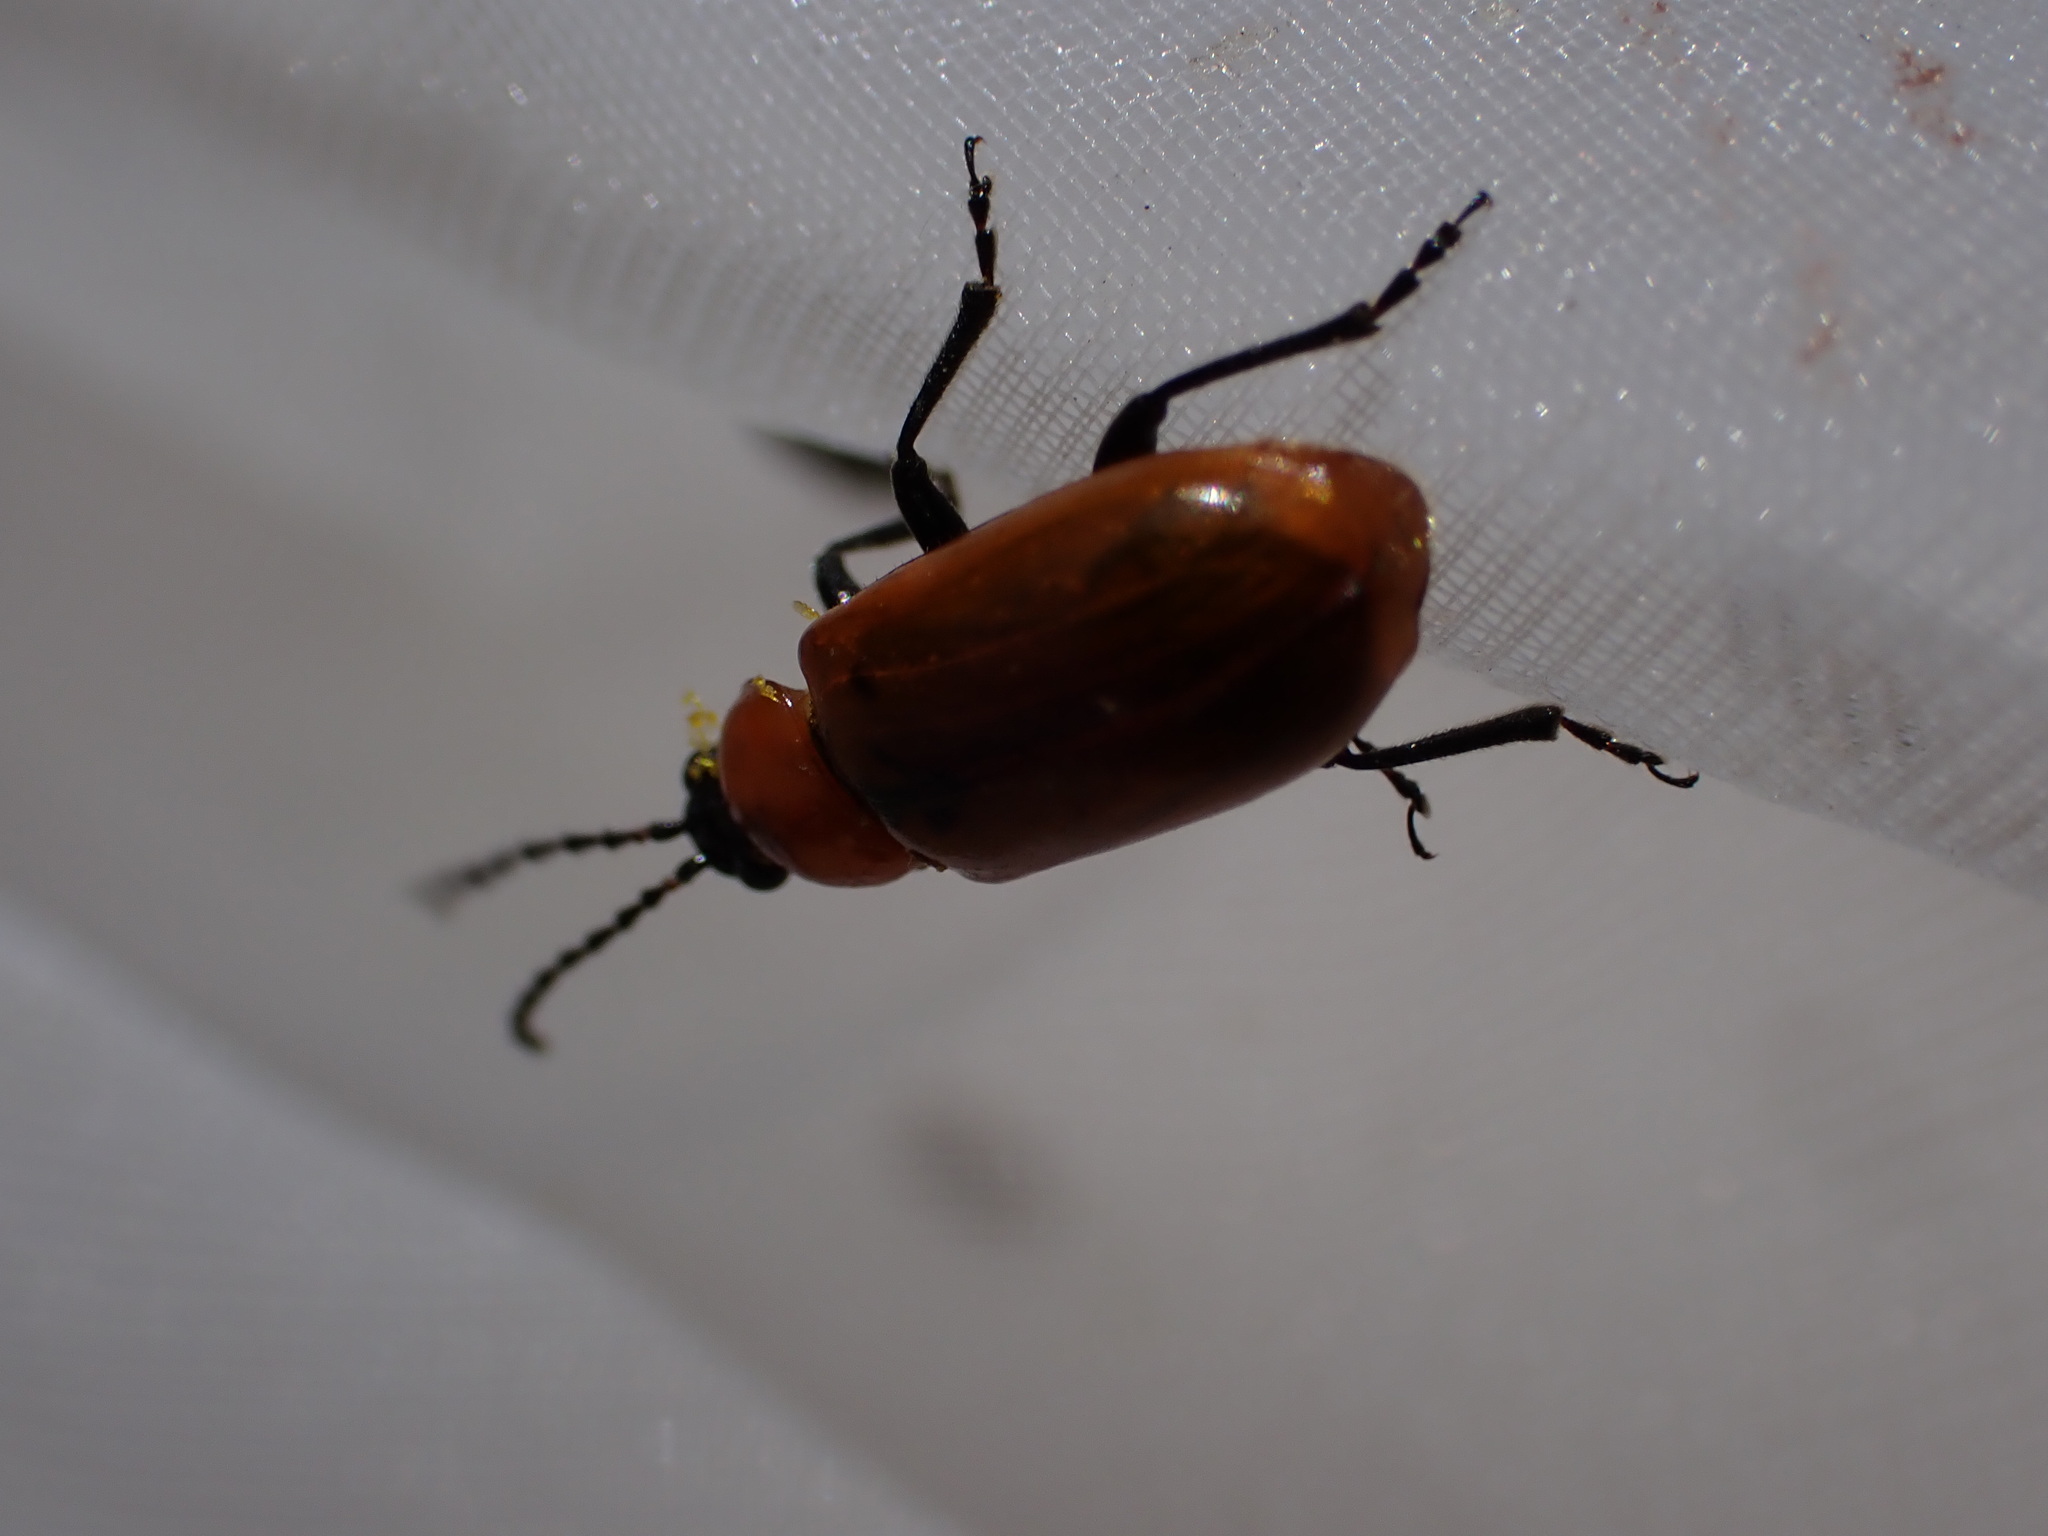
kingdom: Animalia
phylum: Arthropoda
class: Insecta
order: Coleoptera
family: Chrysomelidae
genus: Exosoma
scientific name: Exosoma lusitanicum
